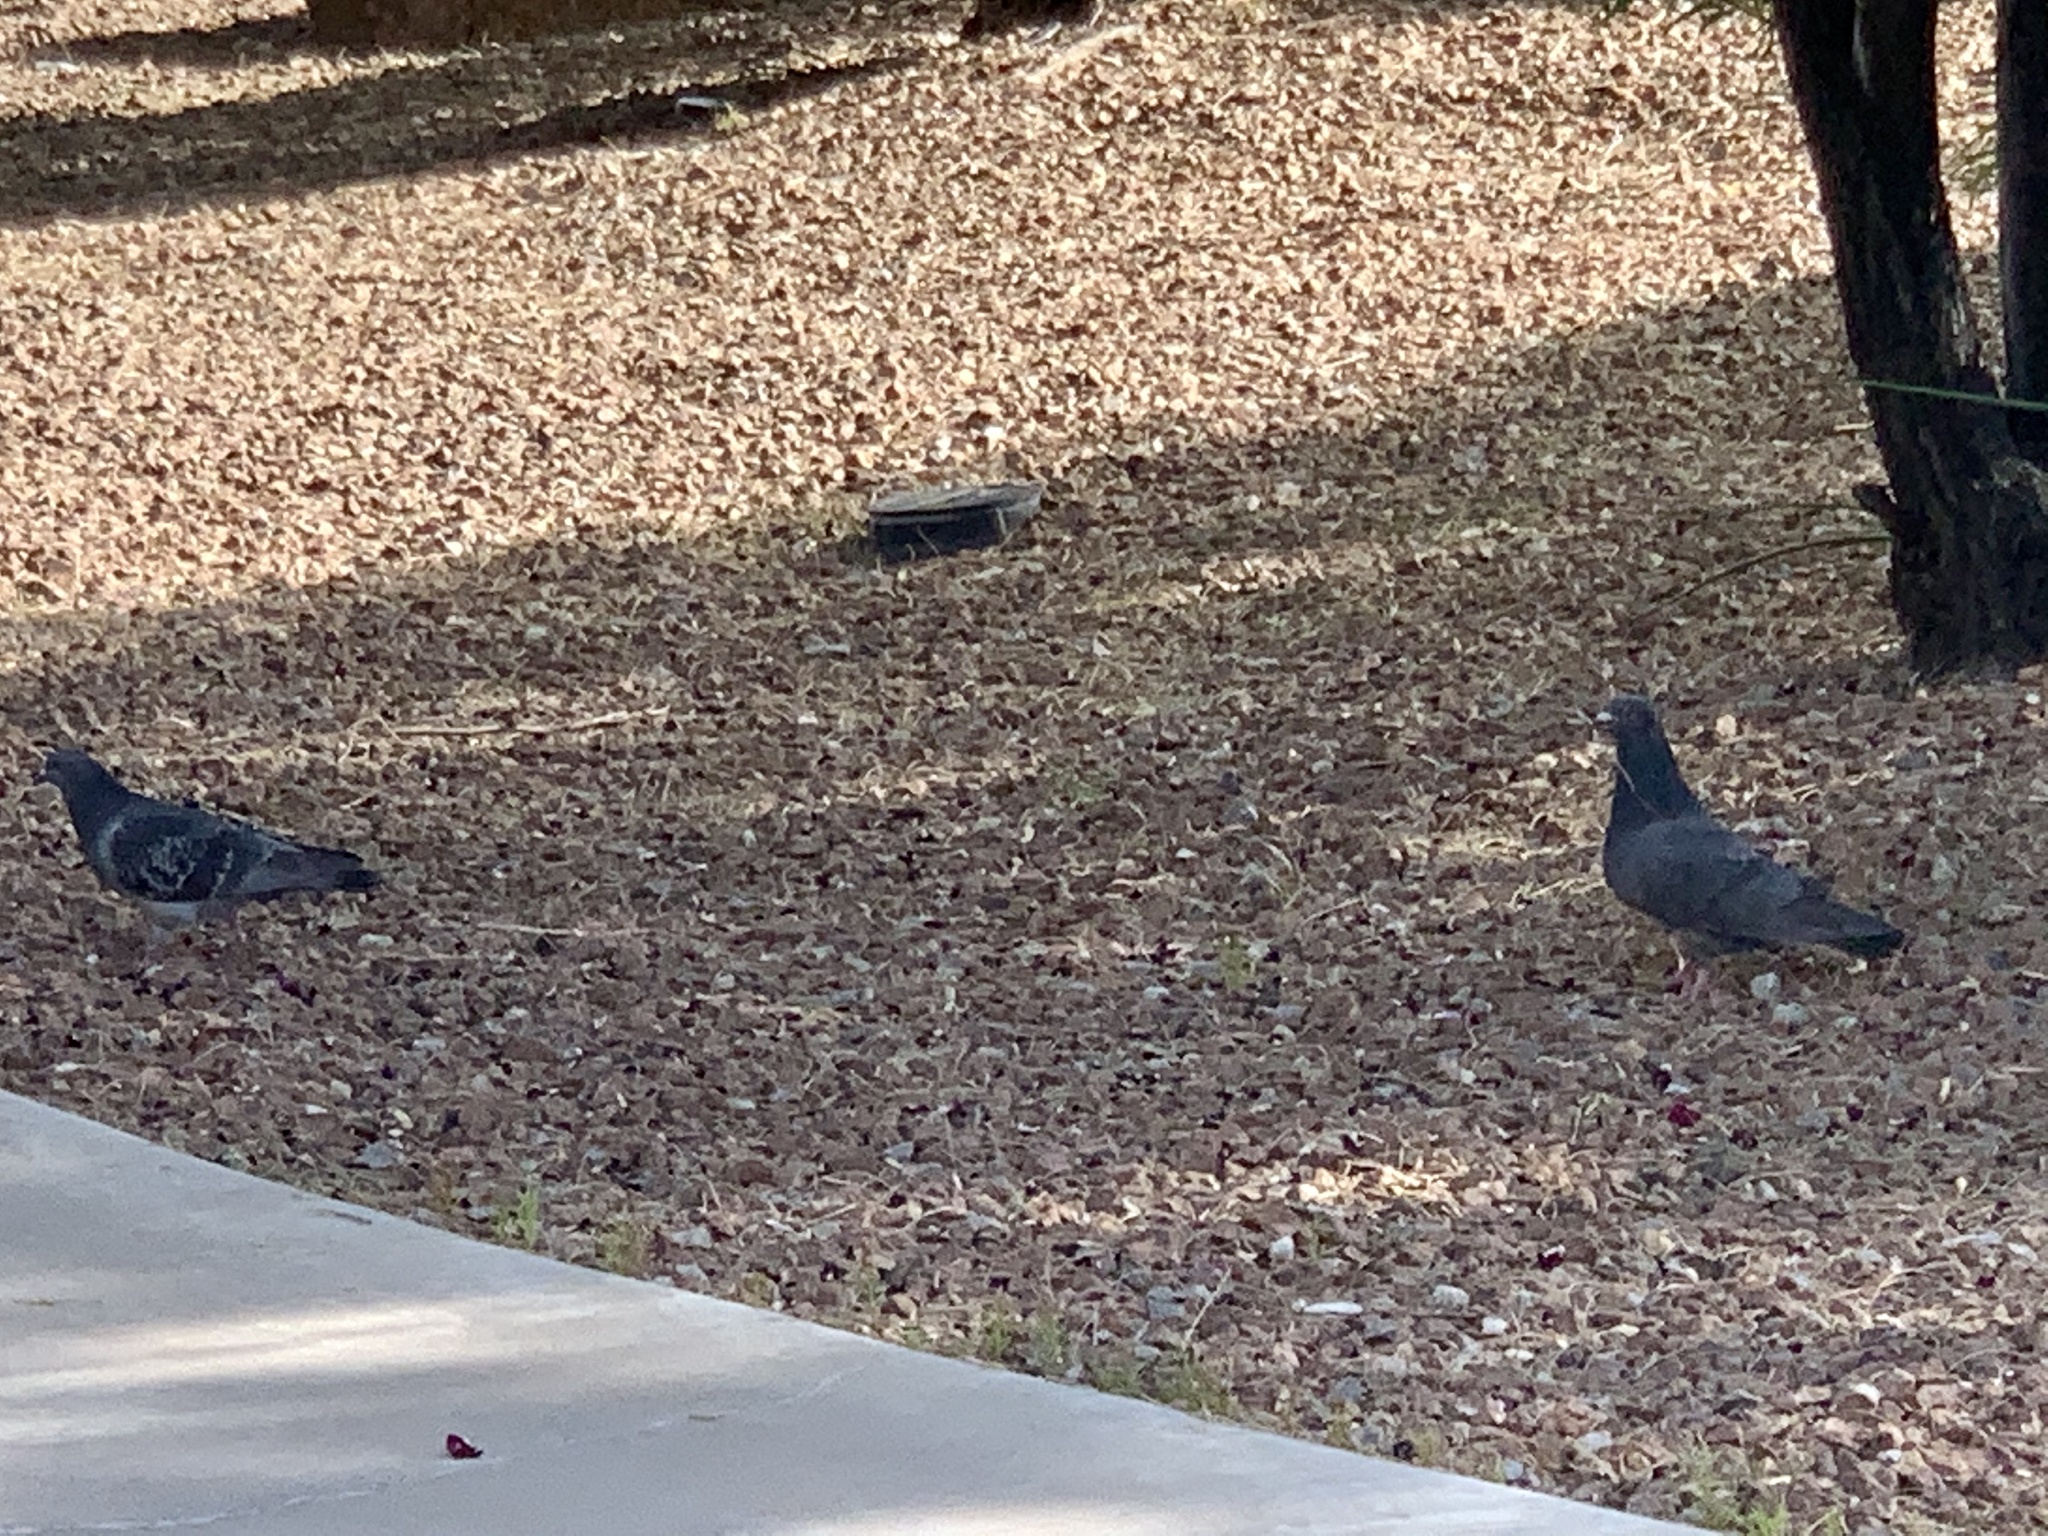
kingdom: Animalia
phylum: Chordata
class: Aves
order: Columbiformes
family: Columbidae
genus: Columba
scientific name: Columba livia
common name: Rock pigeon
